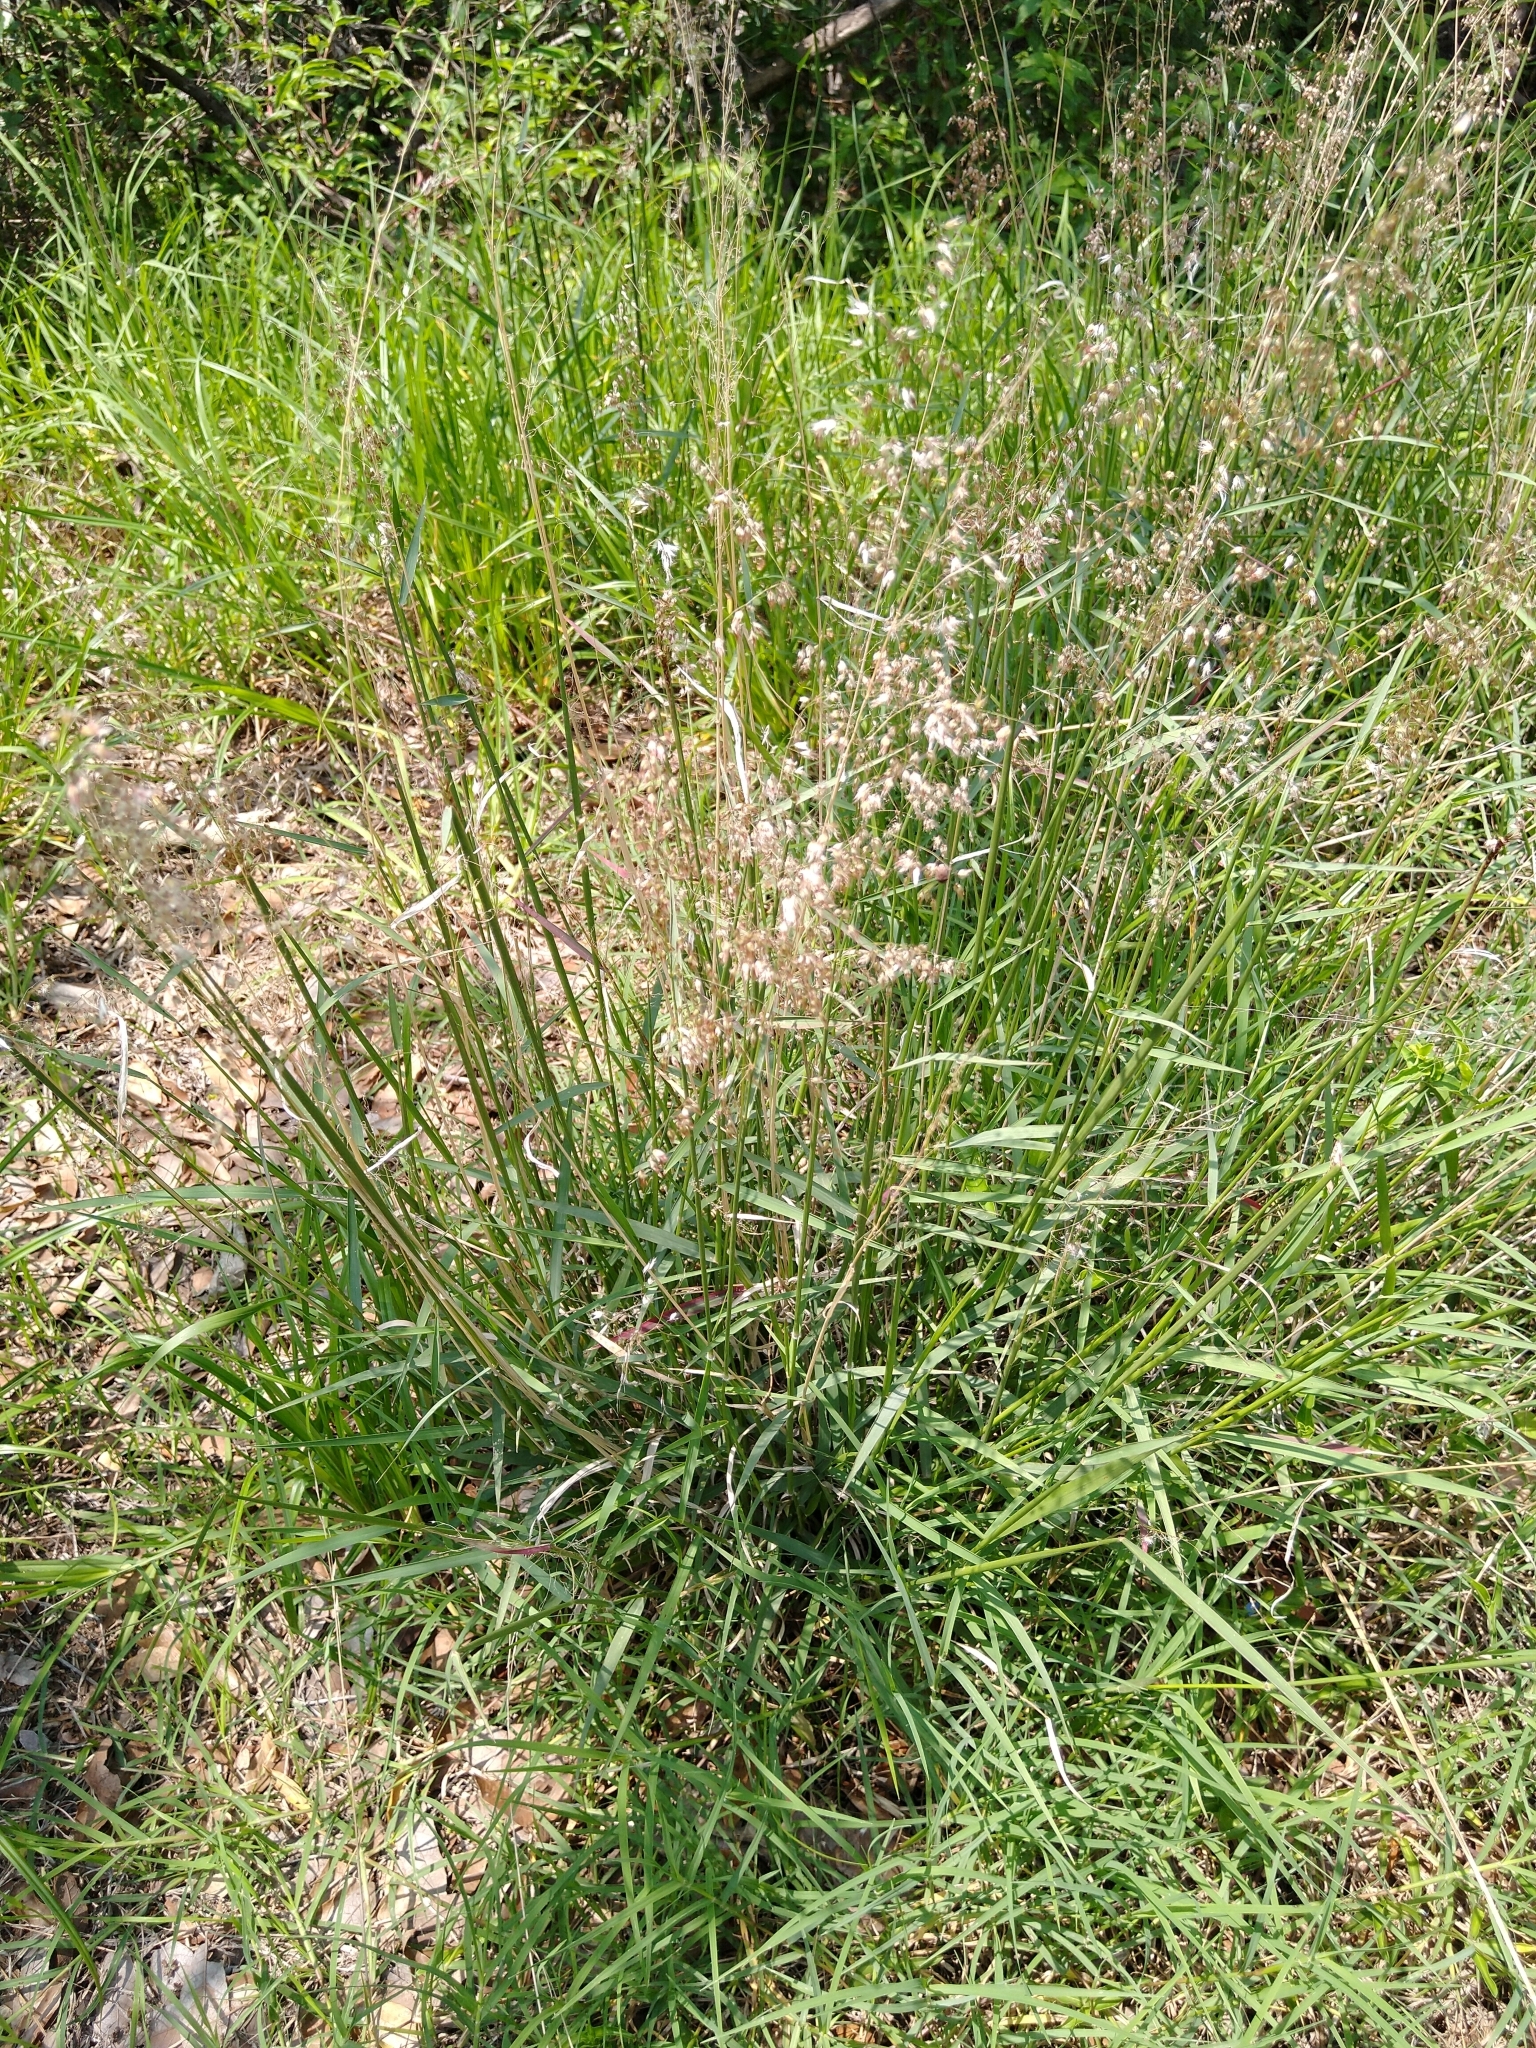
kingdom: Plantae
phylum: Tracheophyta
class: Liliopsida
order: Poales
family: Poaceae
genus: Melinis
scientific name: Melinis repens
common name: Rose natal grass
